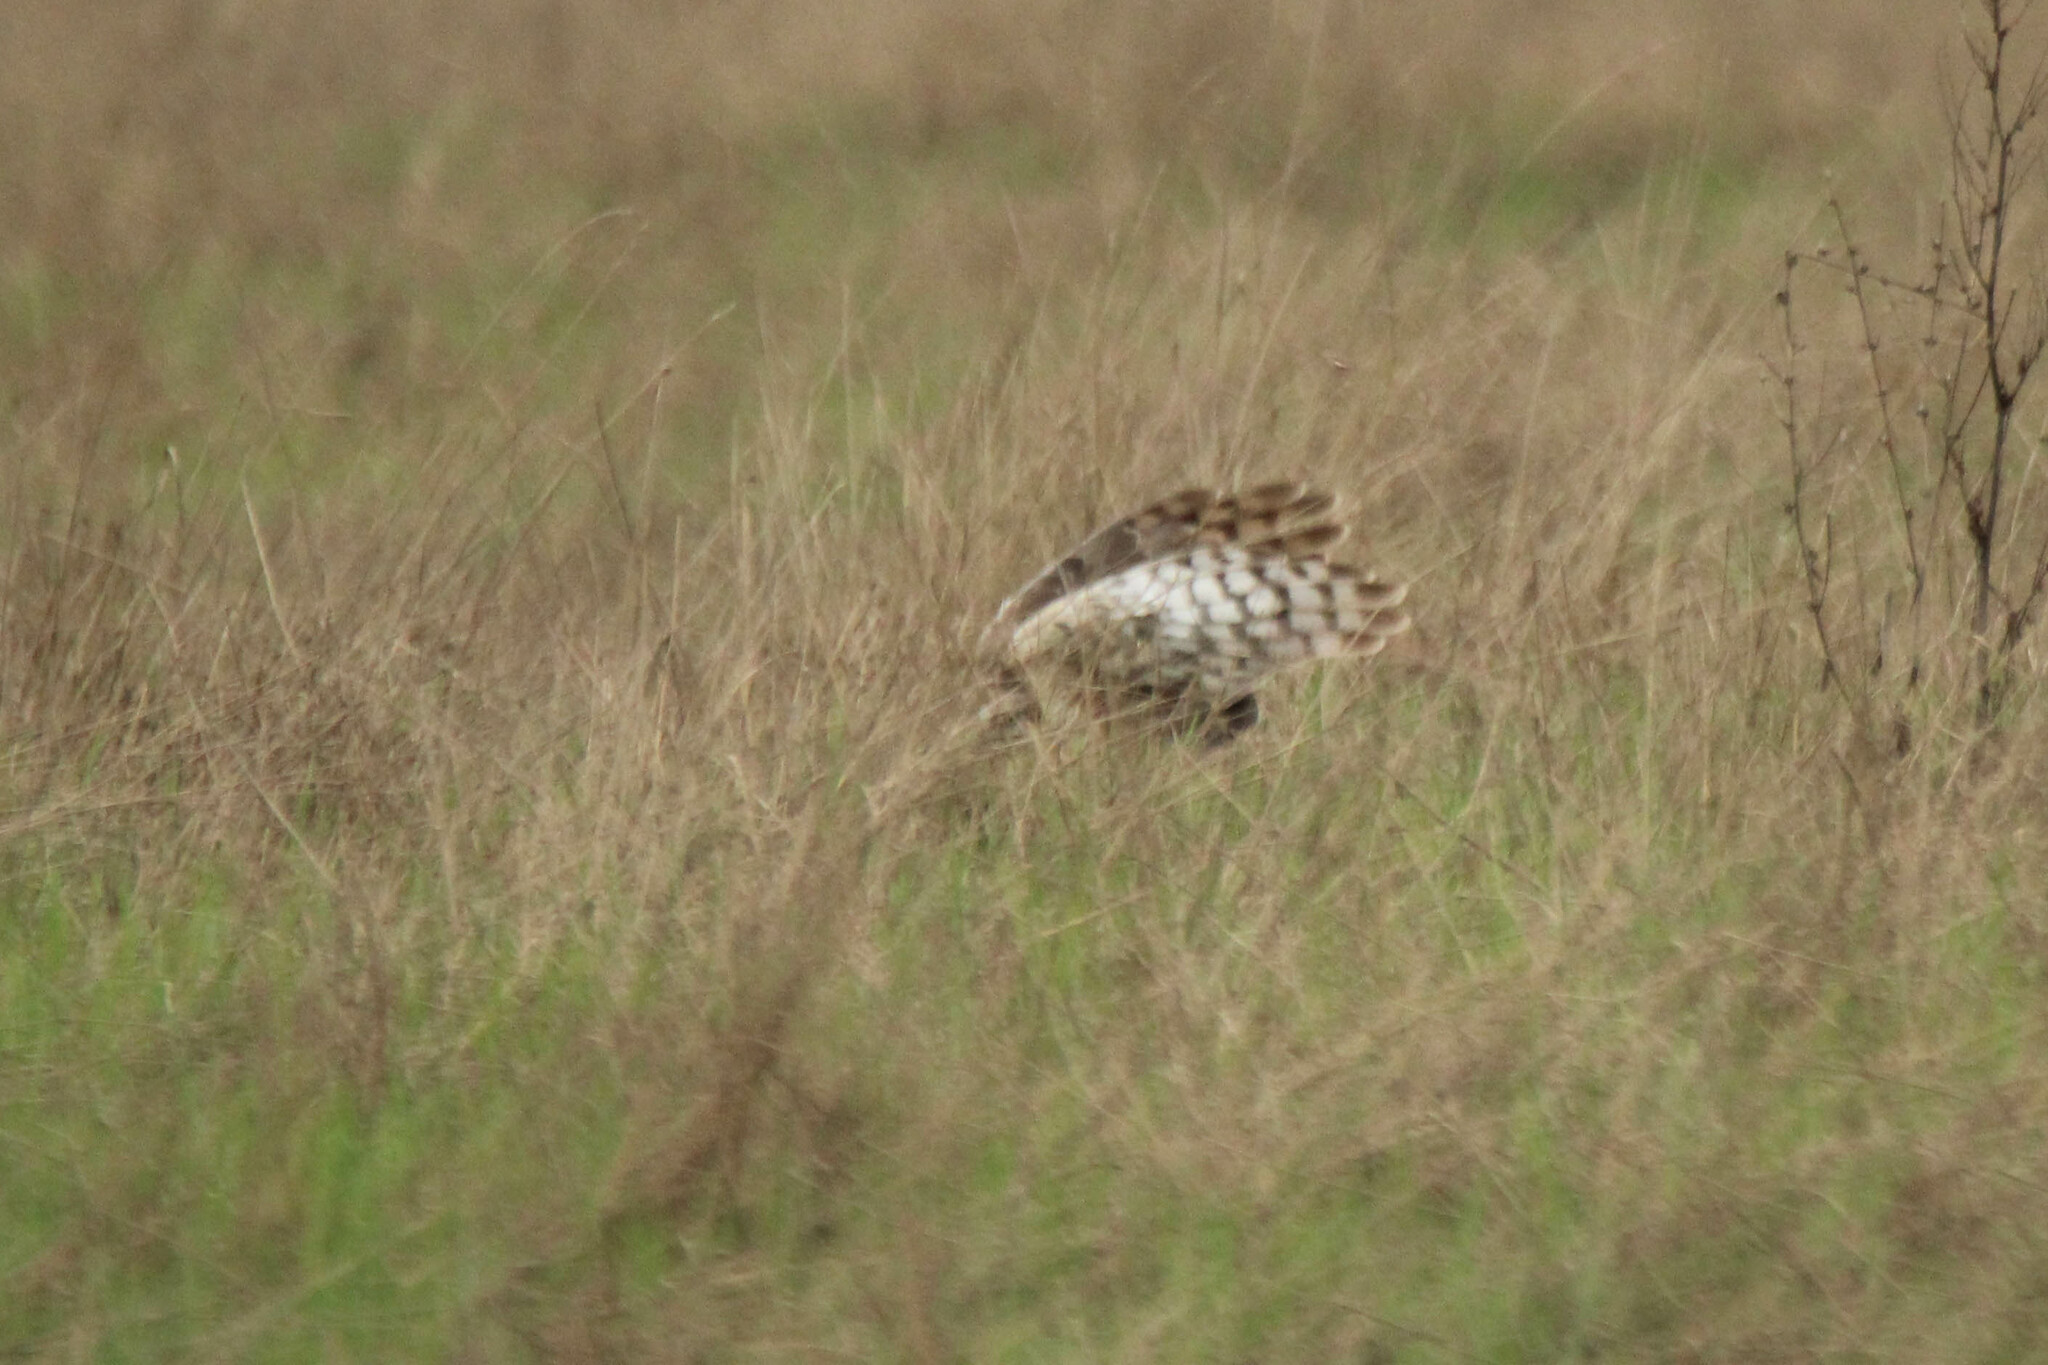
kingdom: Animalia
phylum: Chordata
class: Aves
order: Accipitriformes
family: Accipitridae
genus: Circus
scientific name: Circus cyaneus
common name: Hen harrier
